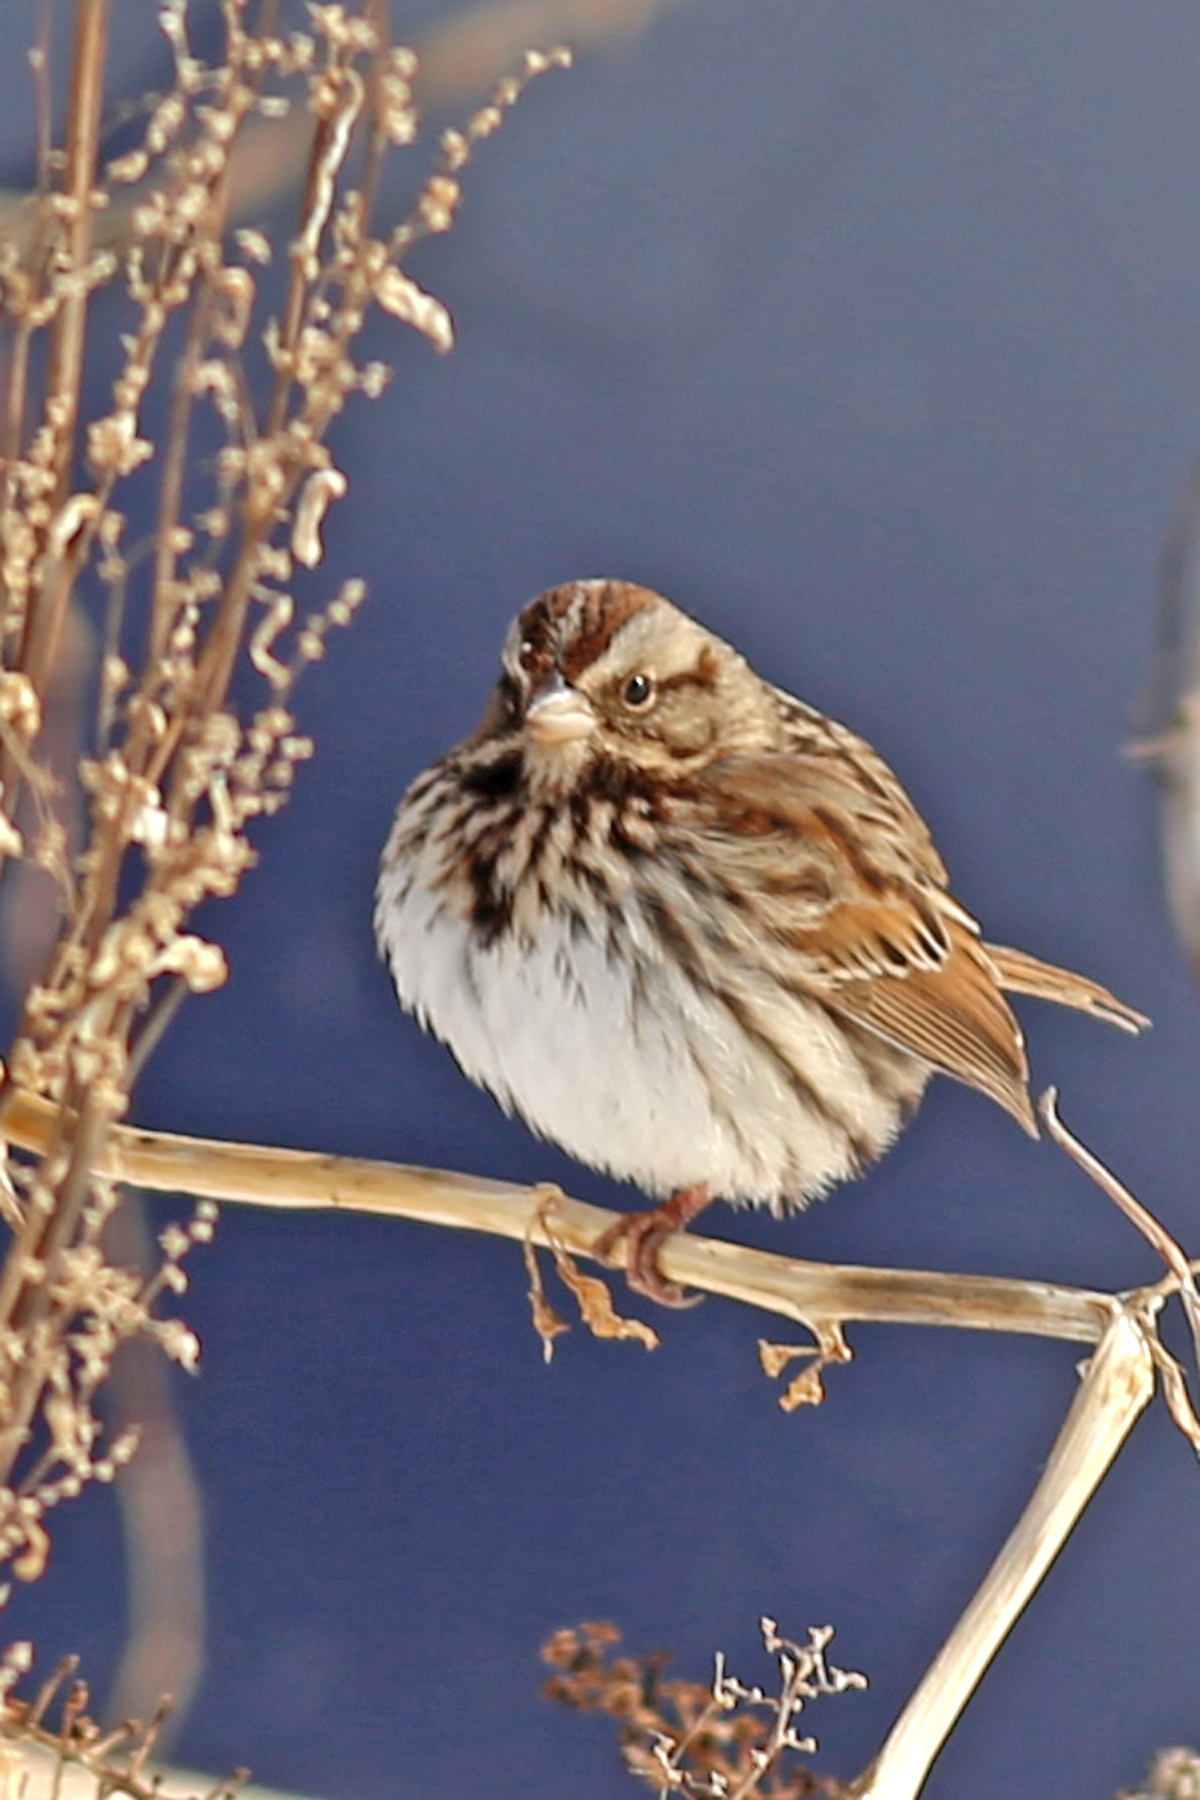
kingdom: Animalia
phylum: Chordata
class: Aves
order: Passeriformes
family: Passerellidae
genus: Melospiza
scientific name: Melospiza melodia
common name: Song sparrow
